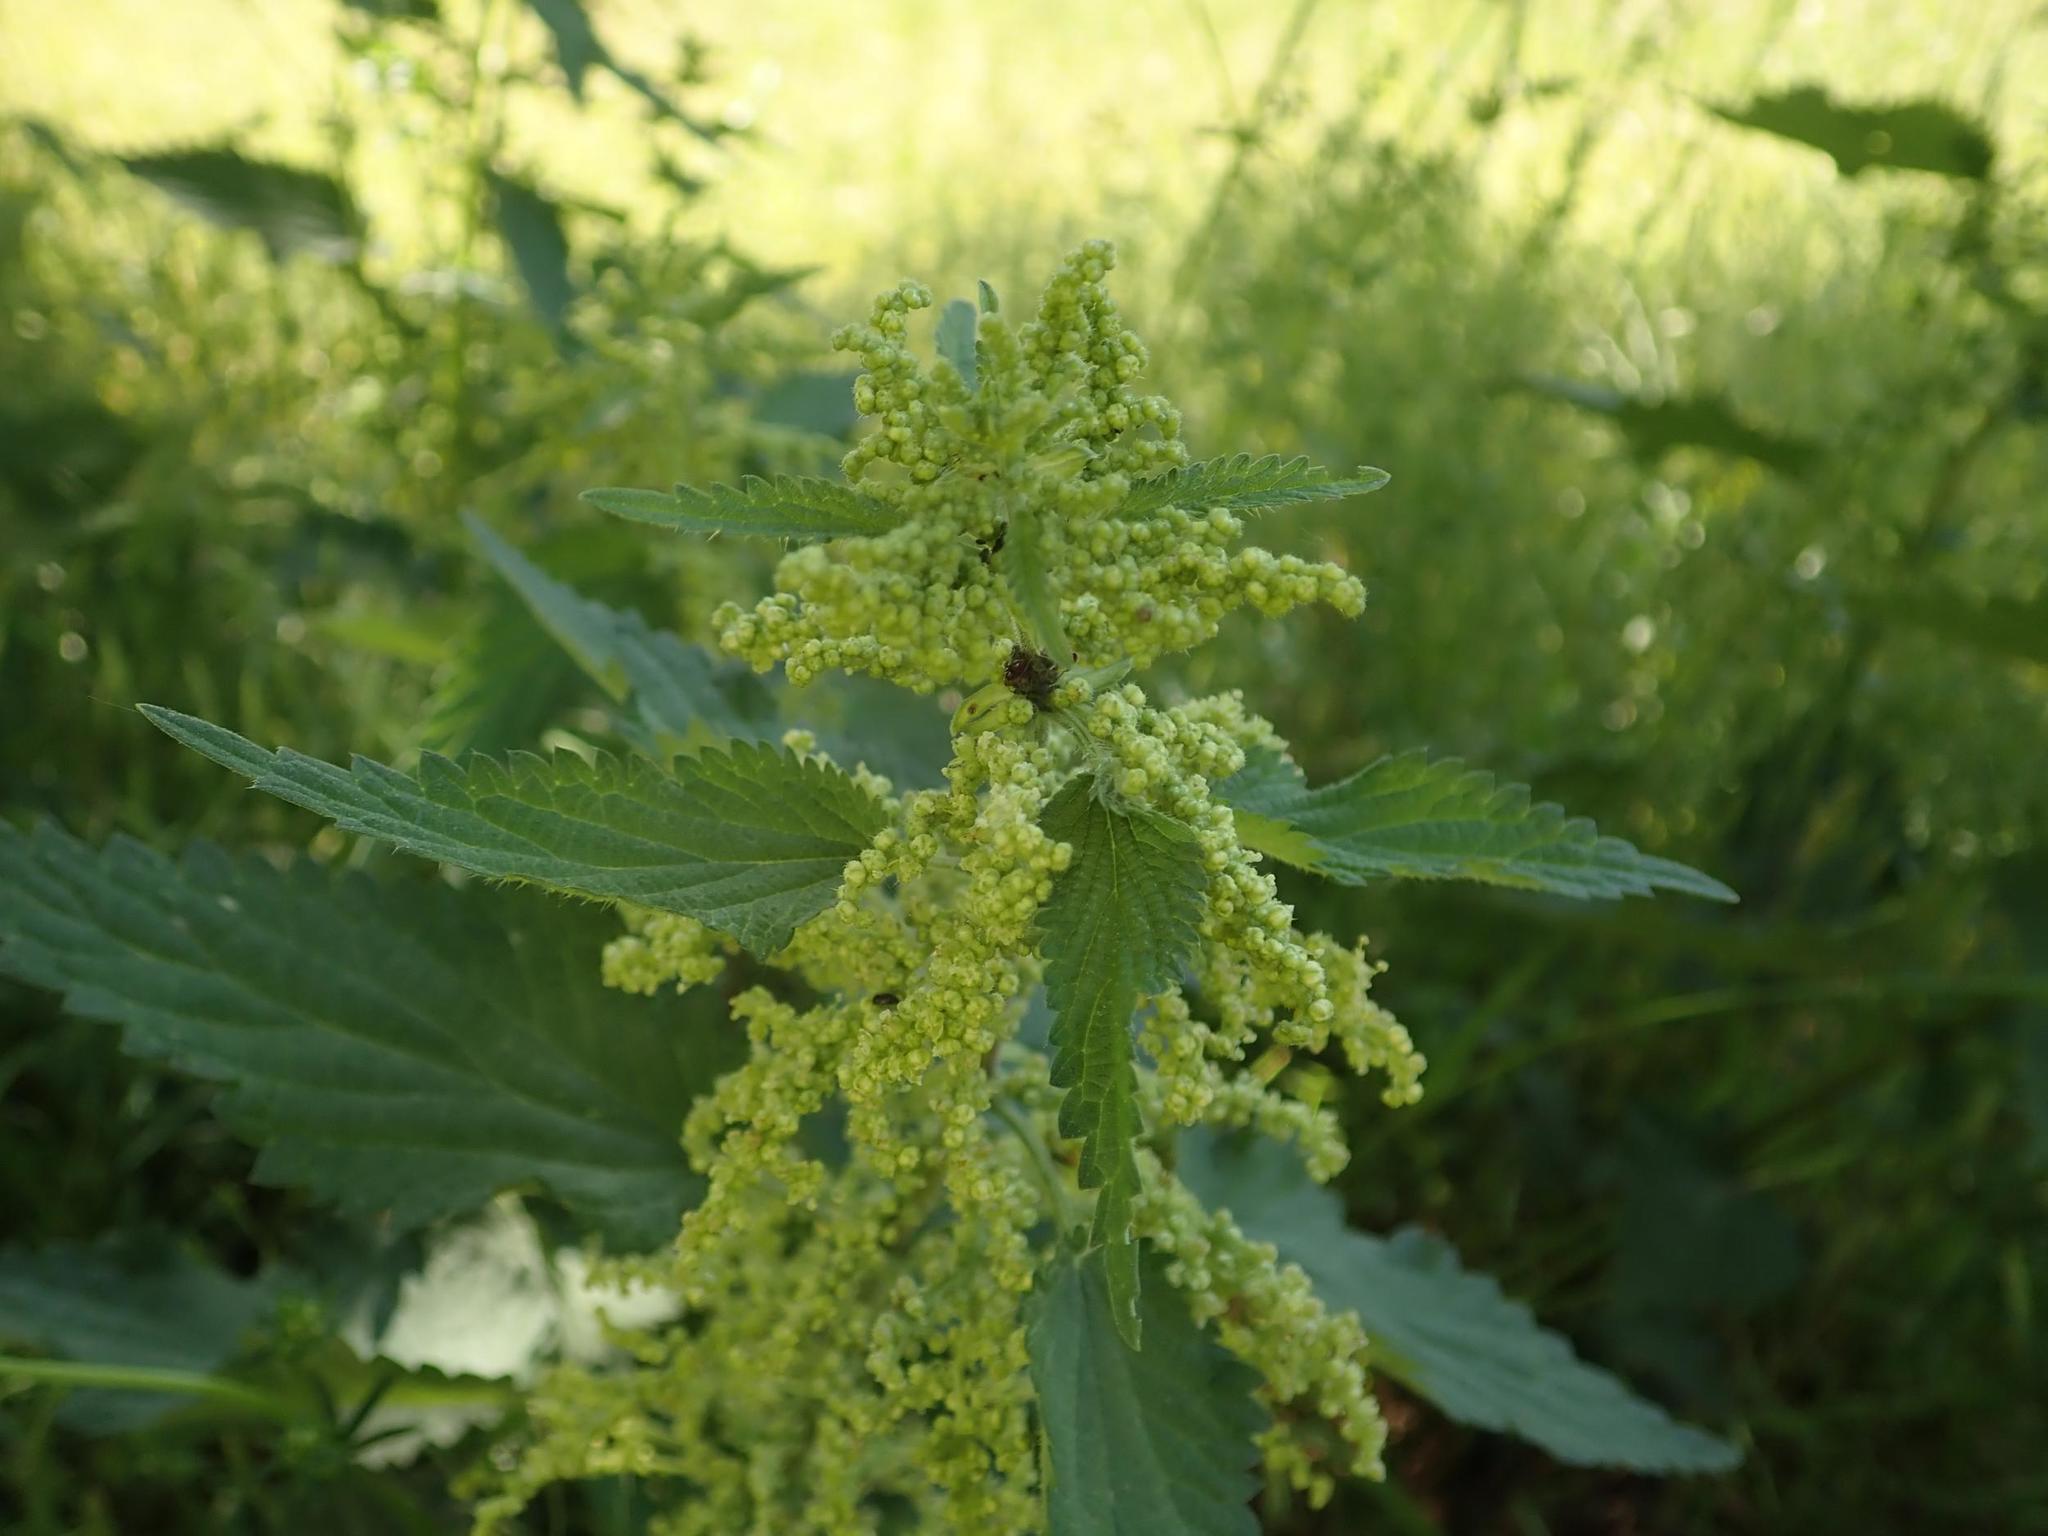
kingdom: Plantae
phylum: Tracheophyta
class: Magnoliopsida
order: Rosales
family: Urticaceae
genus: Urtica
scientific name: Urtica dioica
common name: Common nettle
